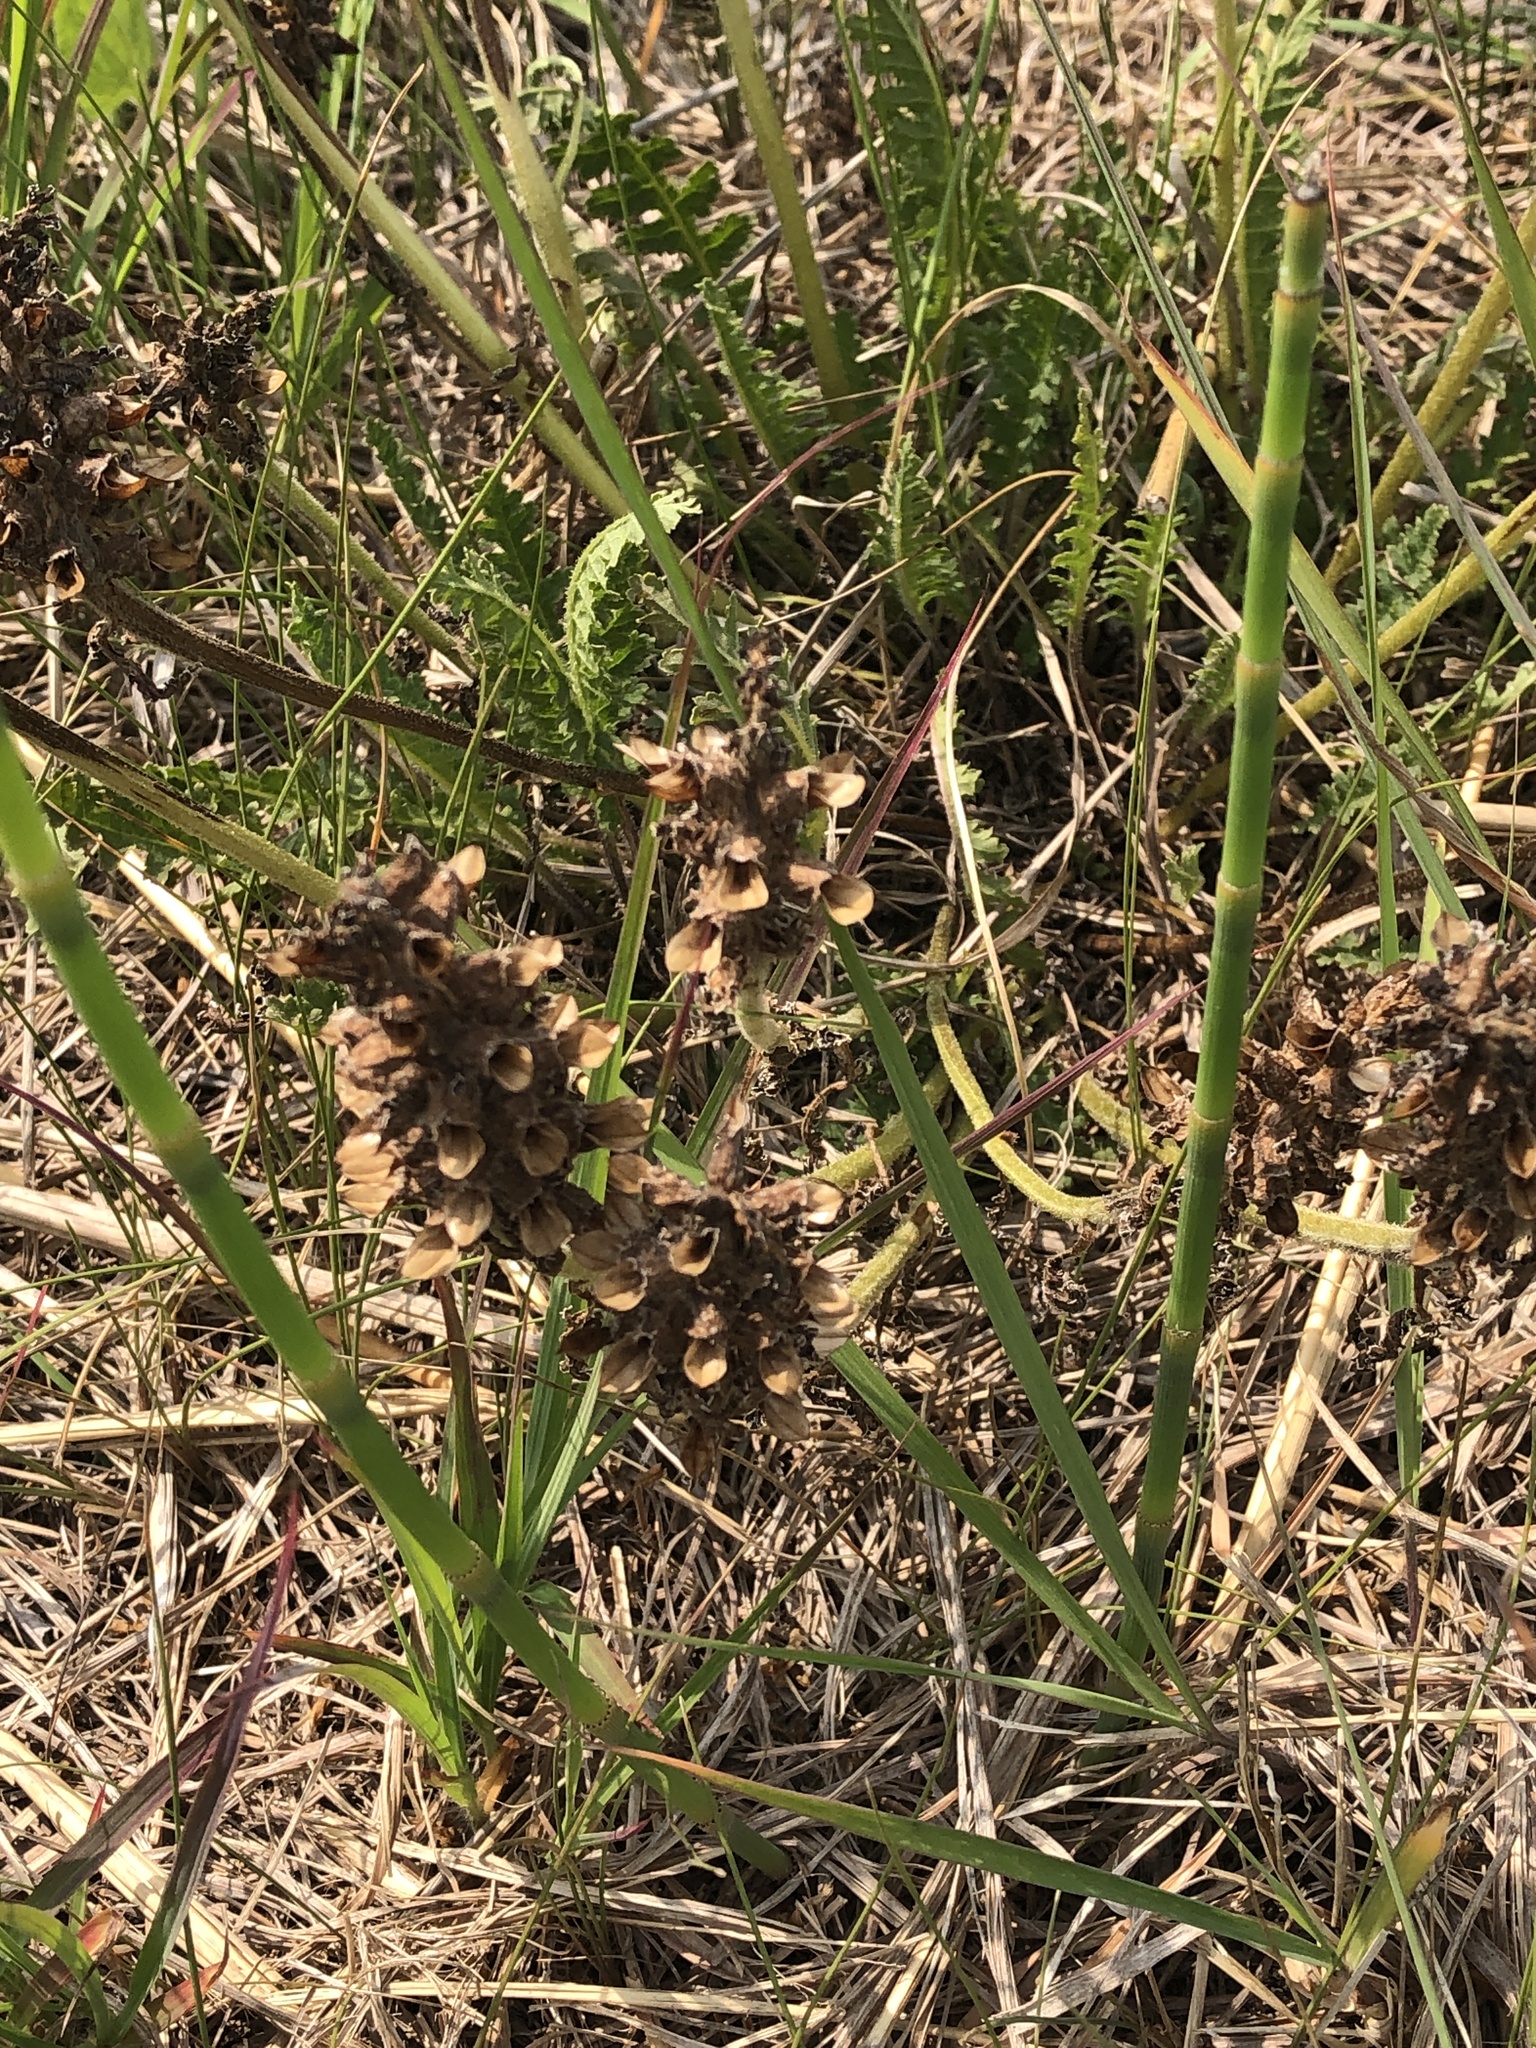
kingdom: Plantae
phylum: Tracheophyta
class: Magnoliopsida
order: Lamiales
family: Orobanchaceae
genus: Pedicularis
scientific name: Pedicularis canadensis
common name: Early lousewort
